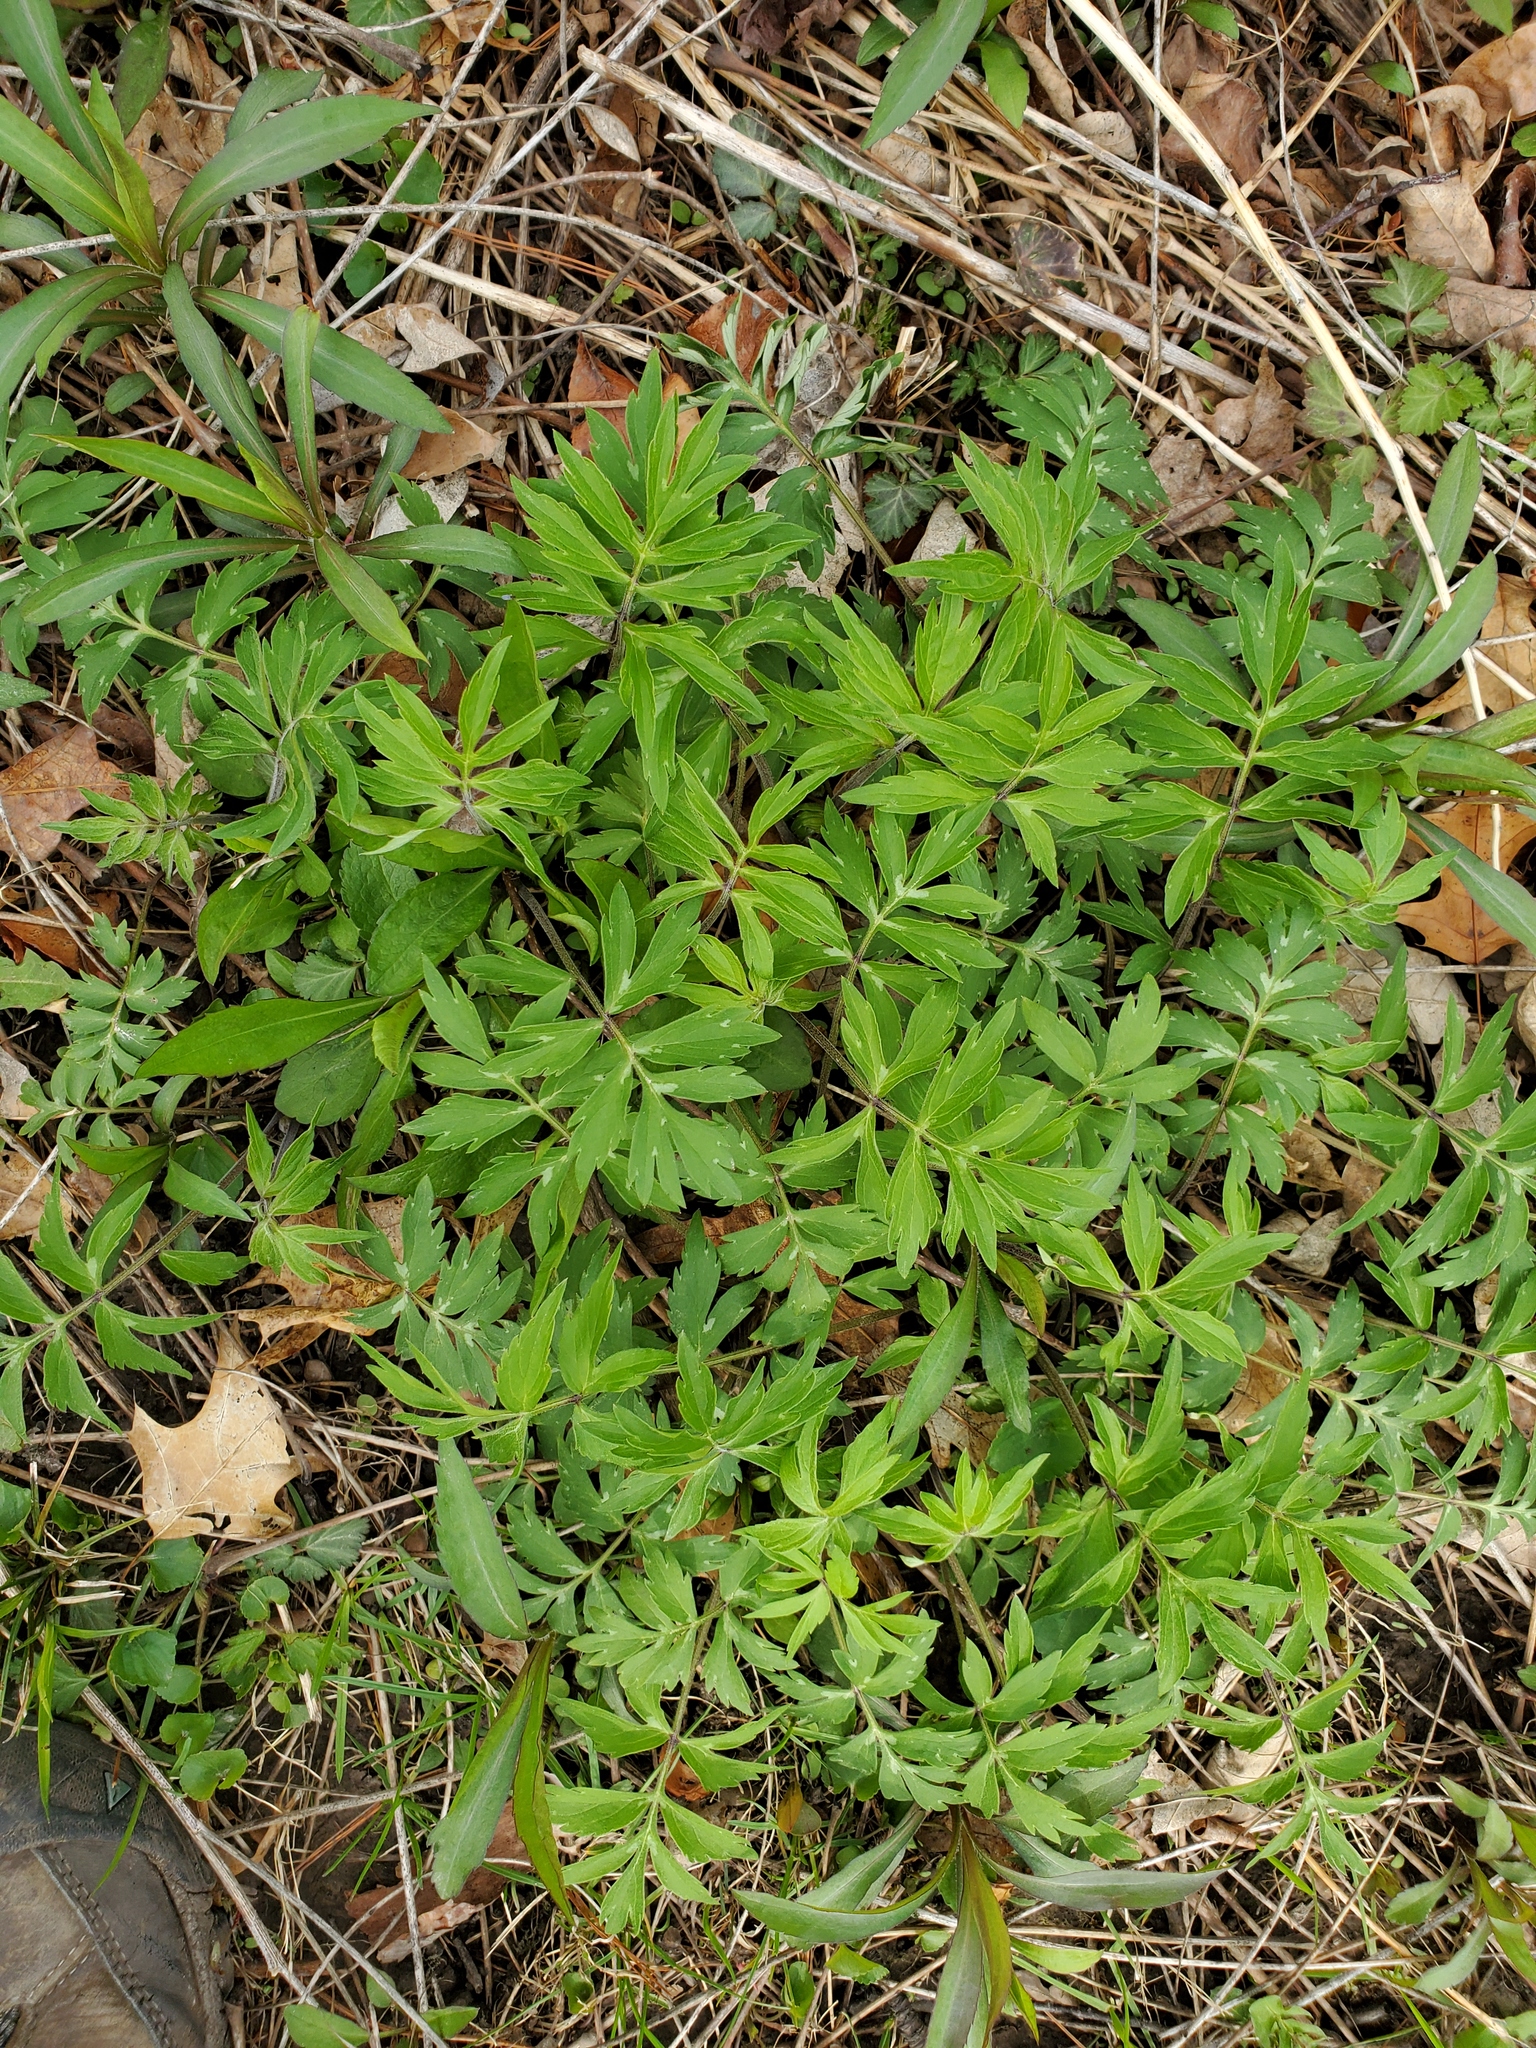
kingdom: Plantae
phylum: Tracheophyta
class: Magnoliopsida
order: Boraginales
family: Hydrophyllaceae
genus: Hydrophyllum
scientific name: Hydrophyllum virginianum
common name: Virginia waterleaf
